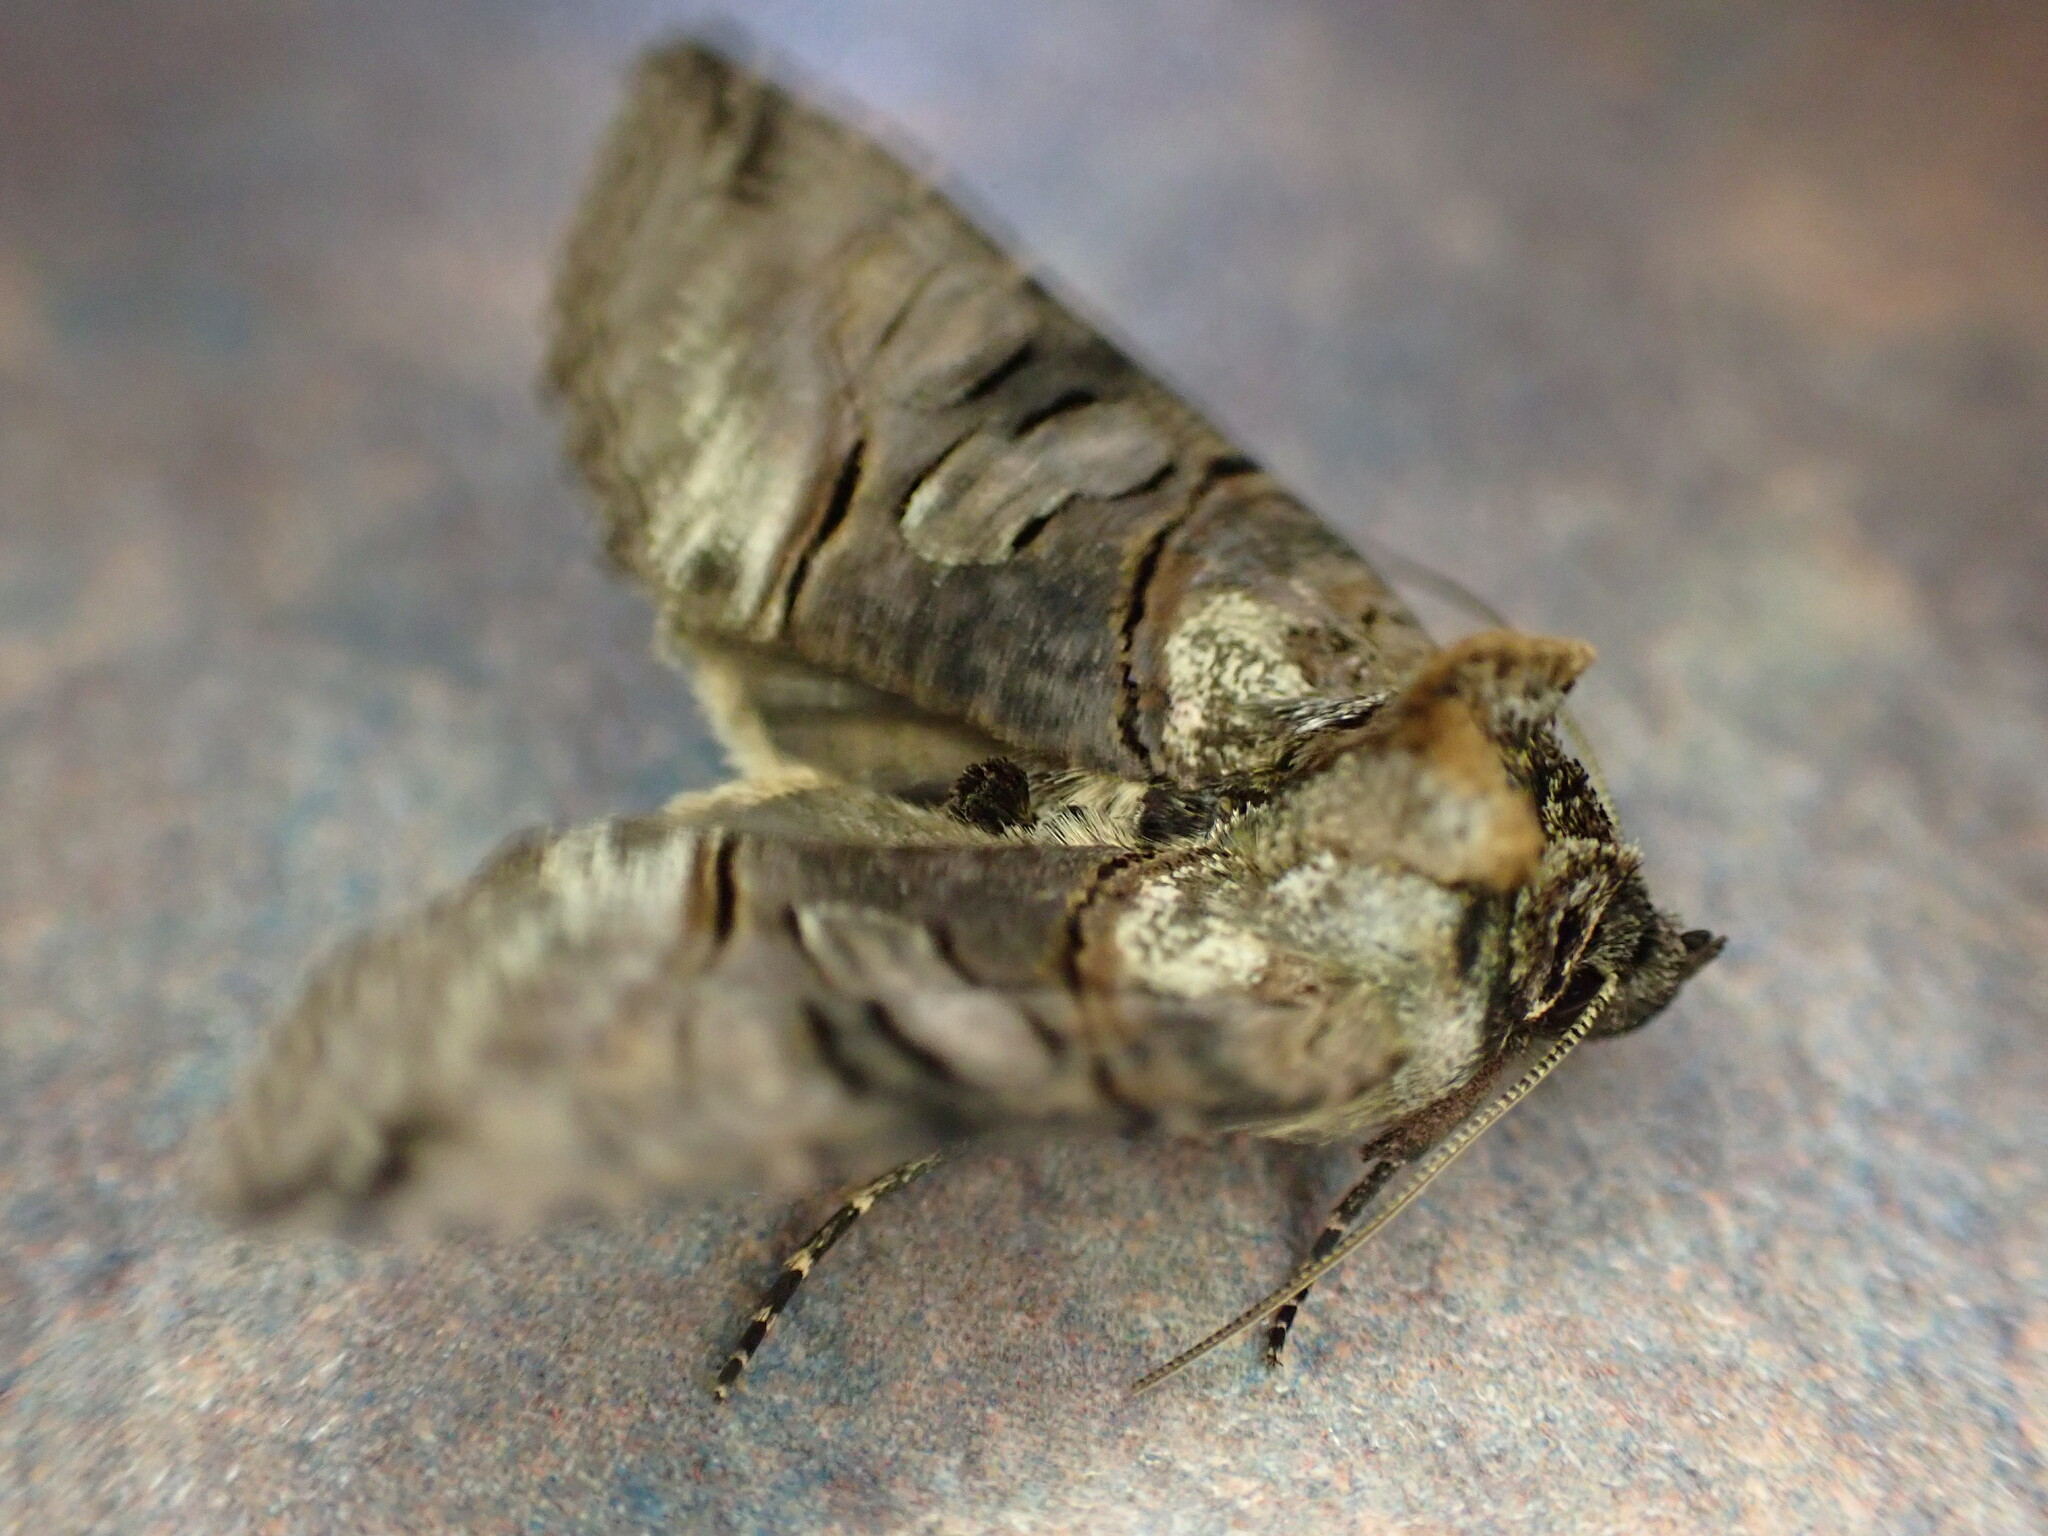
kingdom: Animalia
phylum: Arthropoda
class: Insecta
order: Lepidoptera
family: Noctuidae
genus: Abrostola
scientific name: Abrostola tripartita
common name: Spectacle
